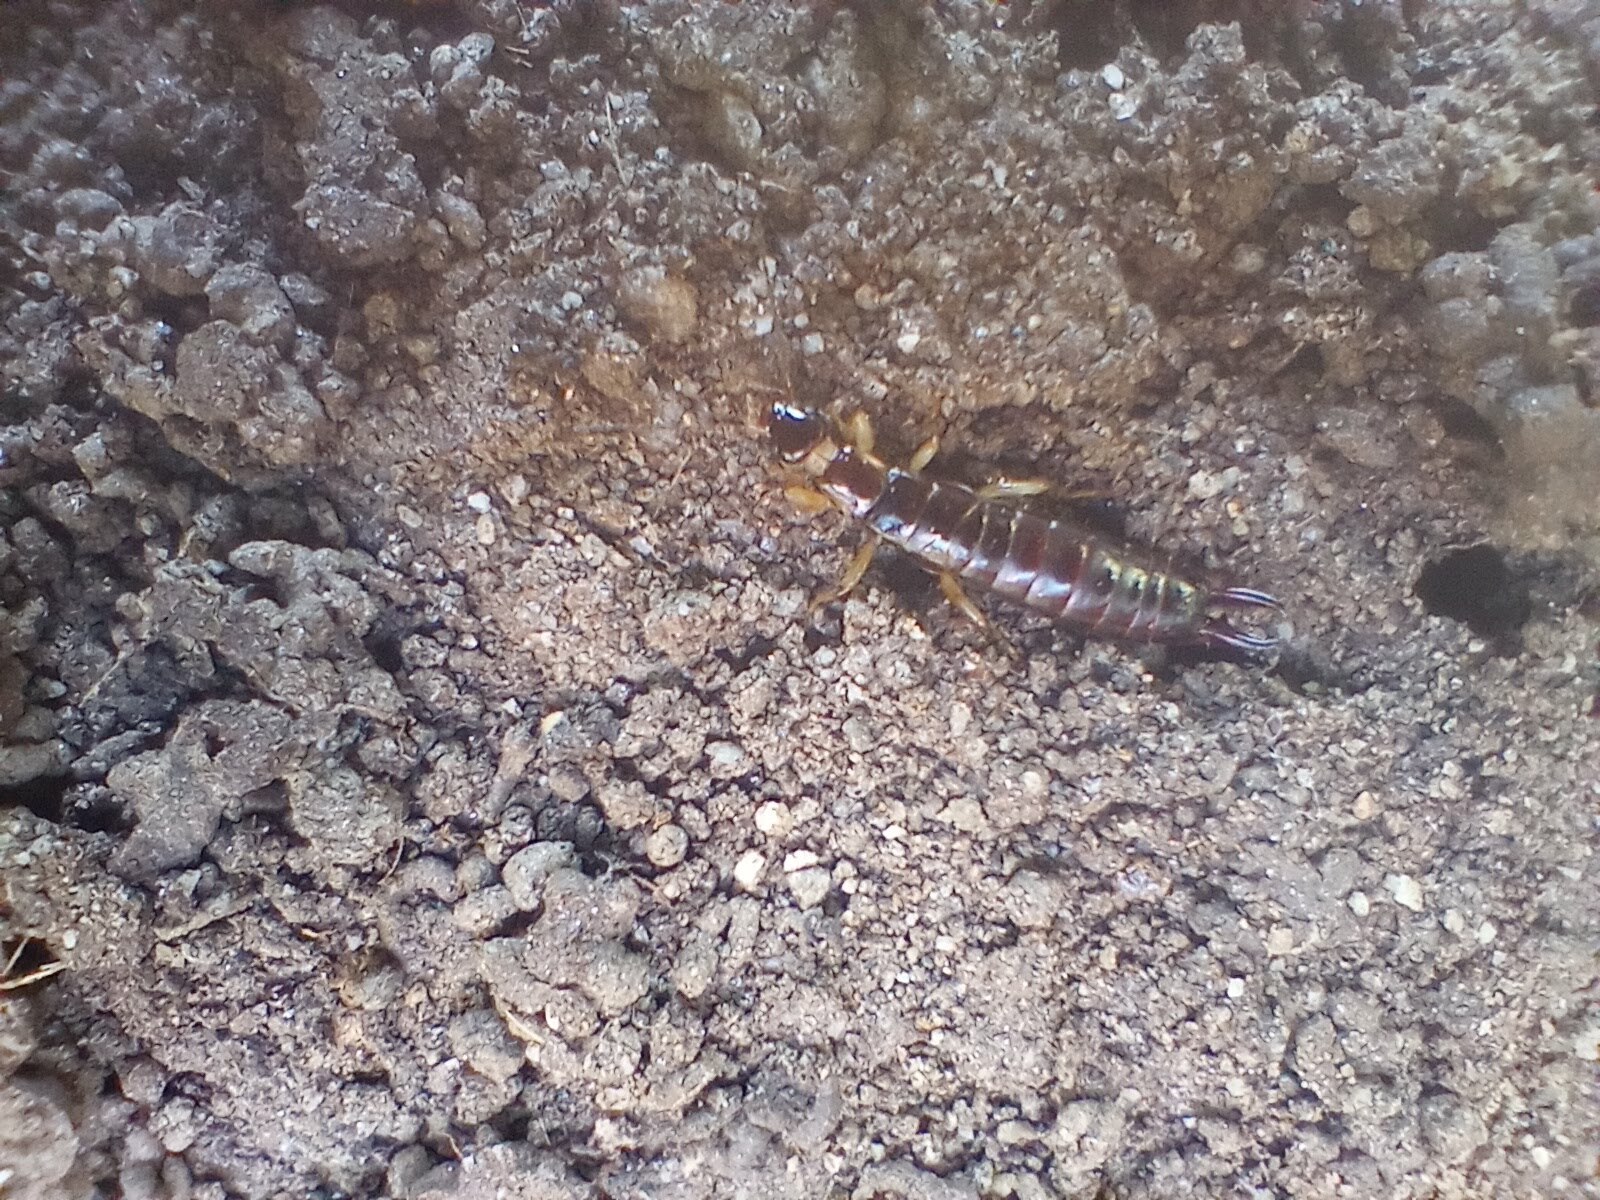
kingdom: Animalia
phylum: Arthropoda
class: Insecta
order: Dermaptera
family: Anisolabididae
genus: Euborellia
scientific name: Euborellia annulipes
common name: Ringlegged earwig
